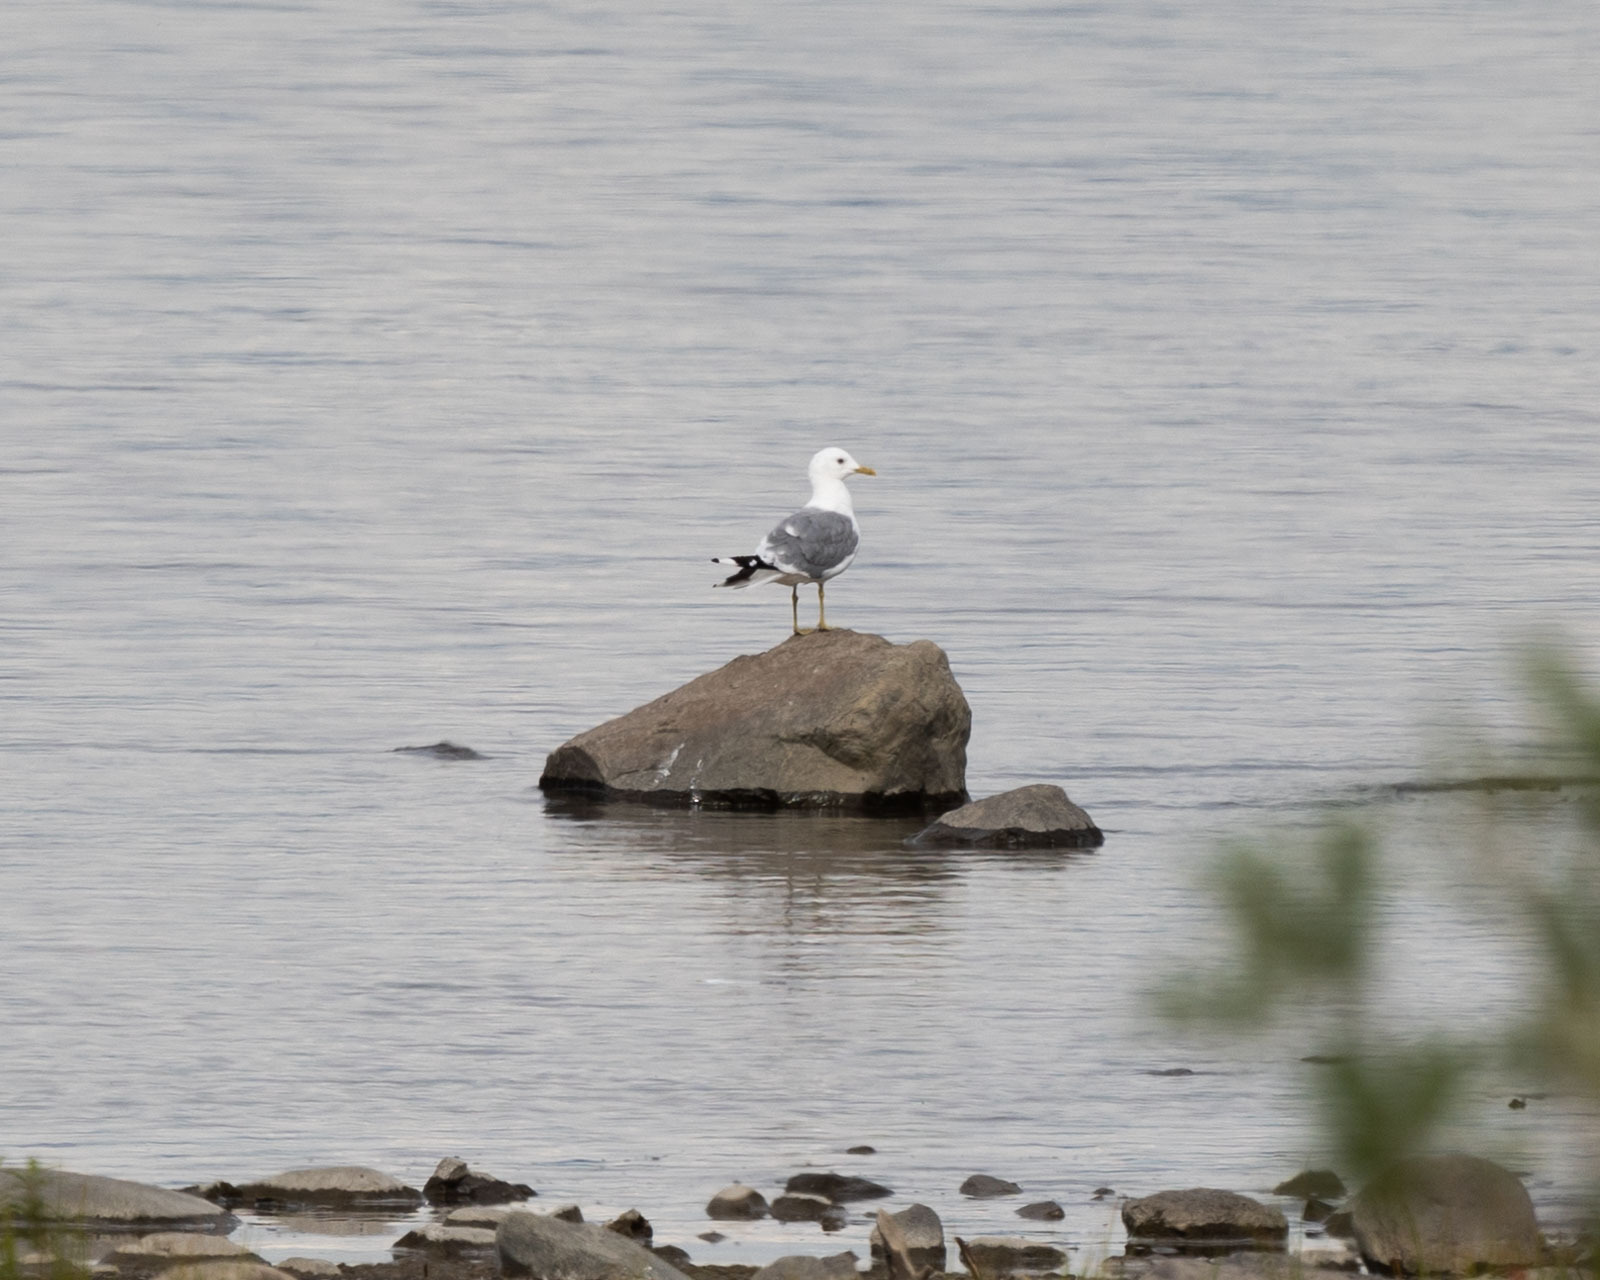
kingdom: Animalia
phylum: Chordata
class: Aves
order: Charadriiformes
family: Laridae
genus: Larus
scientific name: Larus canus
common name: Mew gull
